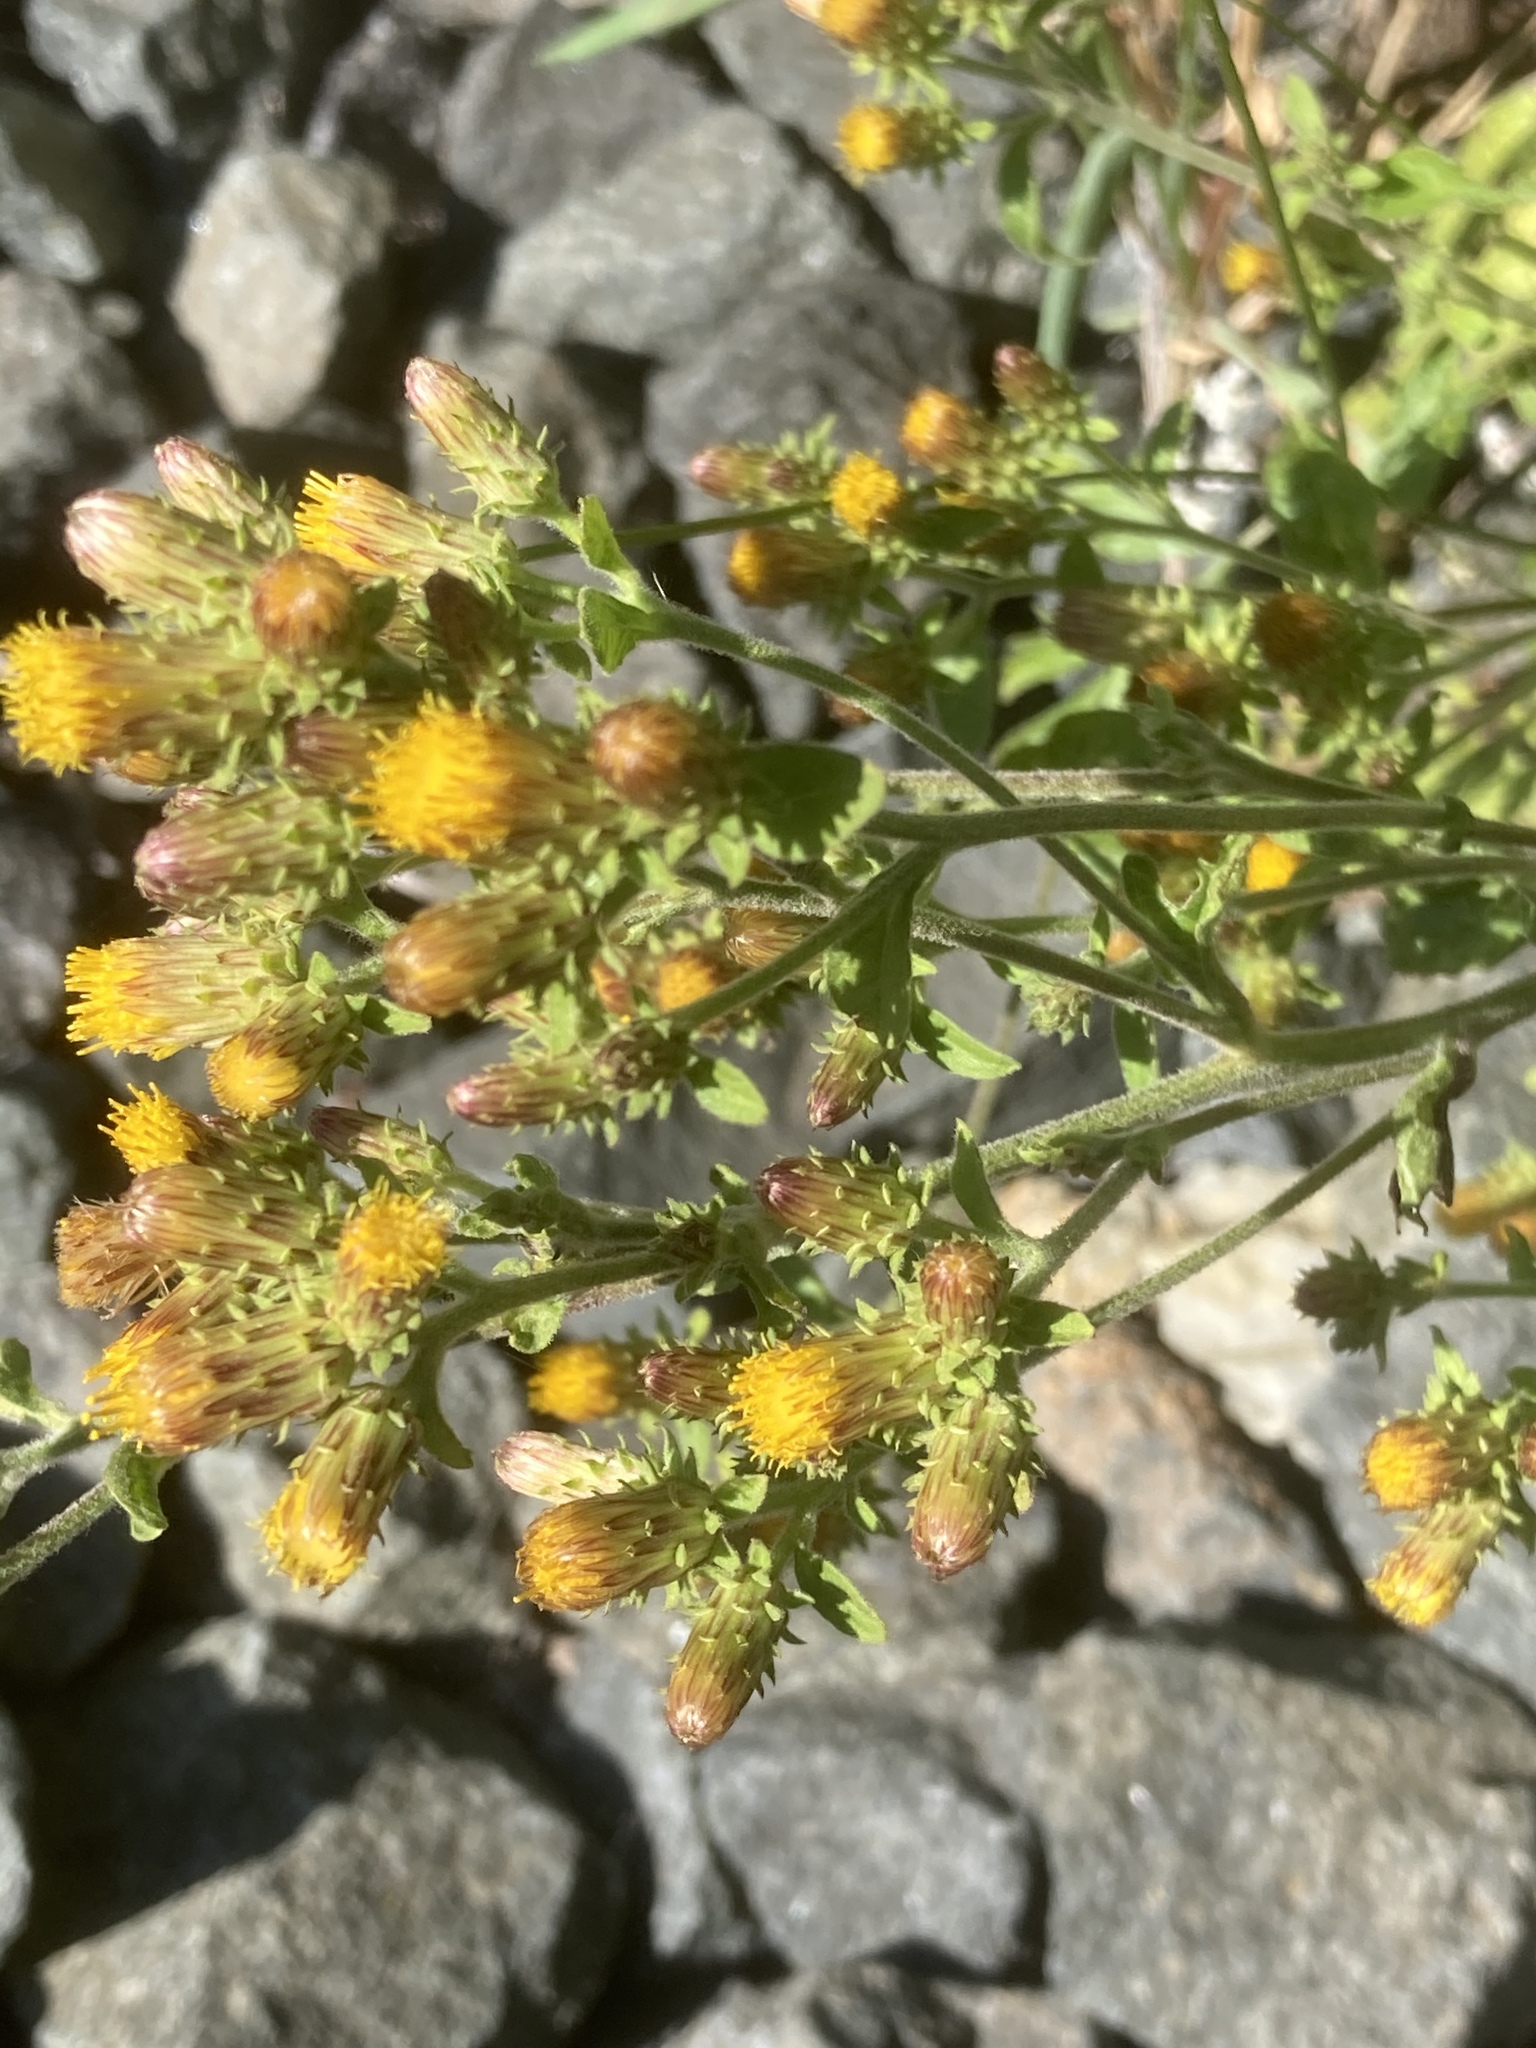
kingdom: Plantae
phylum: Tracheophyta
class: Magnoliopsida
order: Asterales
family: Asteraceae
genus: Pentanema
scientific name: Pentanema squarrosum
